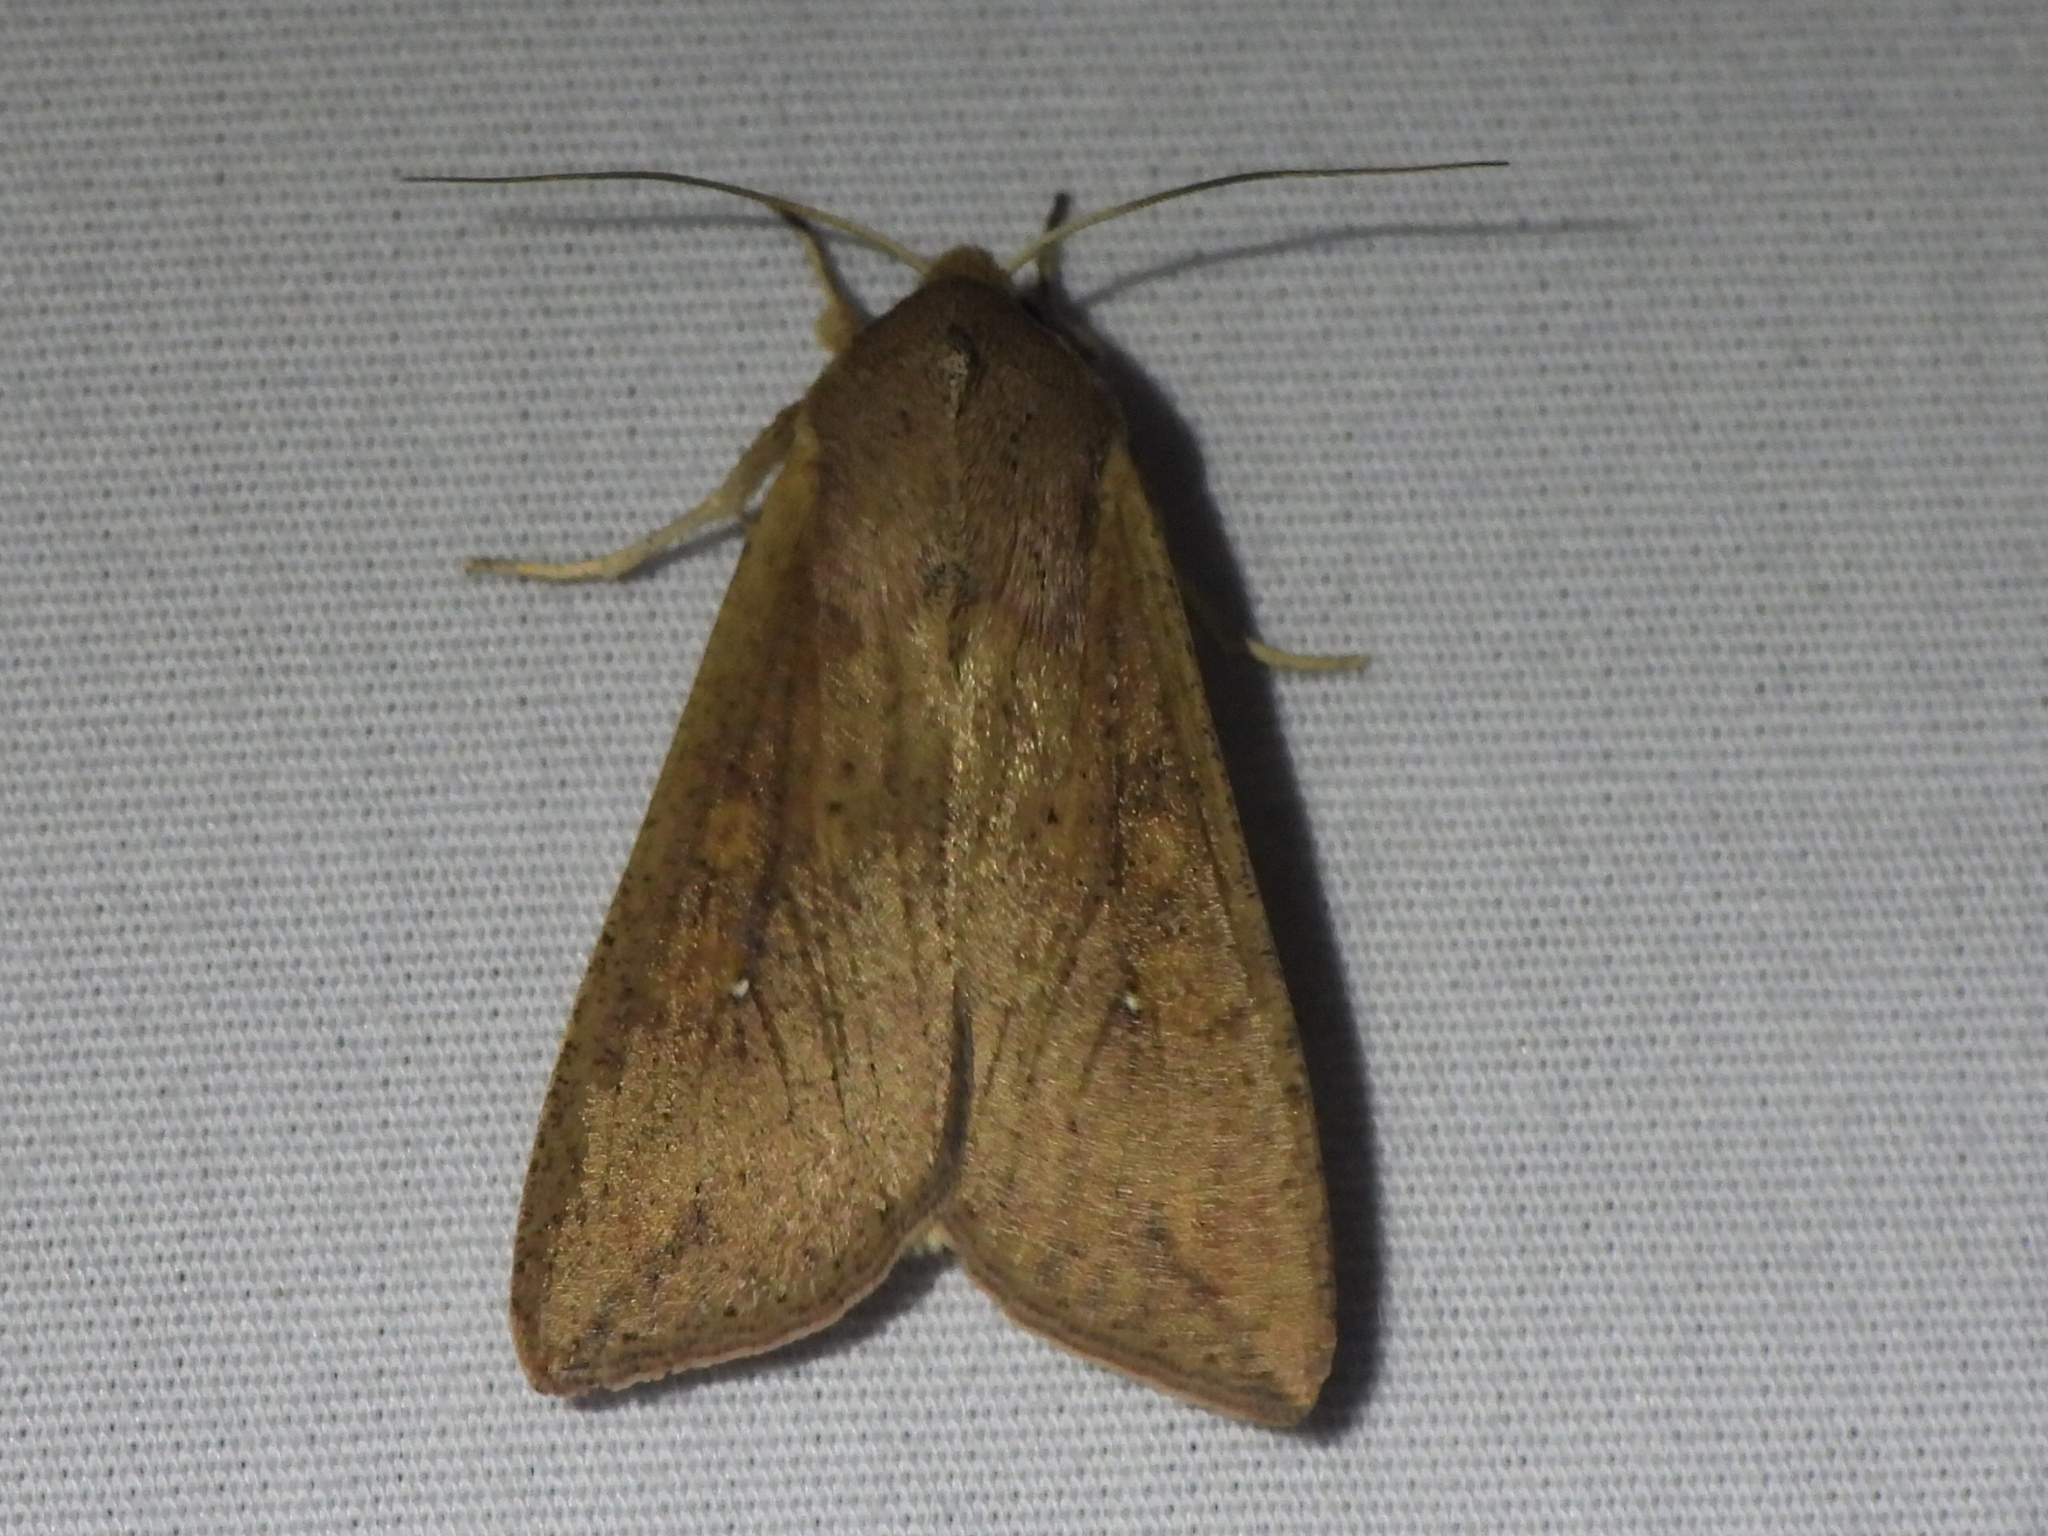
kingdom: Animalia
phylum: Arthropoda
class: Insecta
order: Lepidoptera
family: Noctuidae
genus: Mythimna
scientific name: Mythimna unipuncta
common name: White-speck
